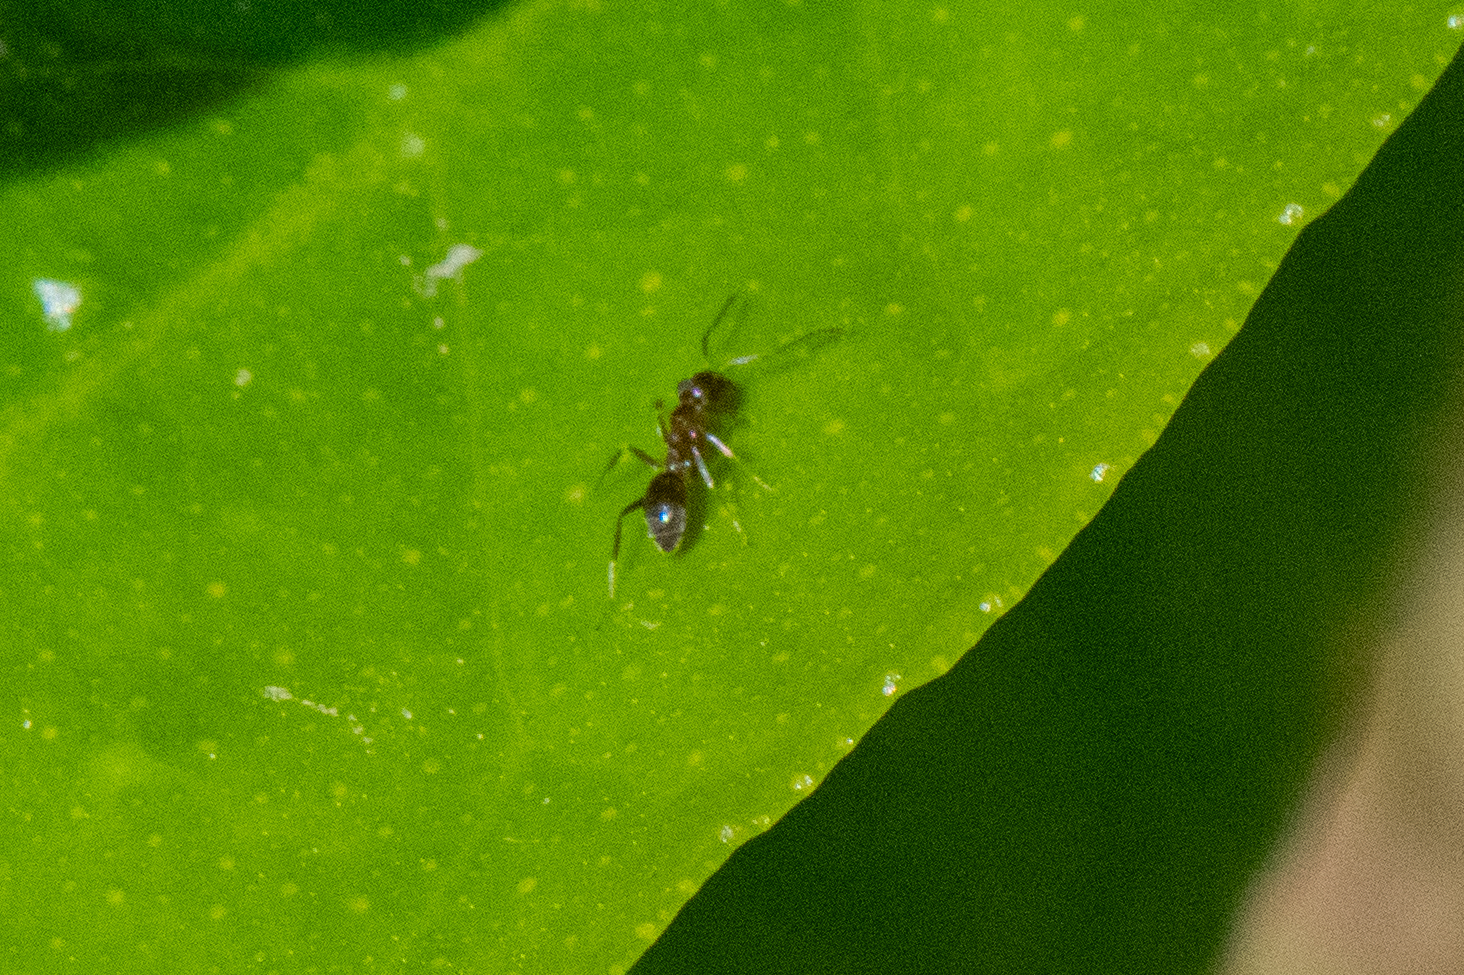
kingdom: Animalia
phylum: Arthropoda
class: Insecta
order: Hymenoptera
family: Formicidae
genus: Linepithema
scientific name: Linepithema humile
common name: Argentine ant
